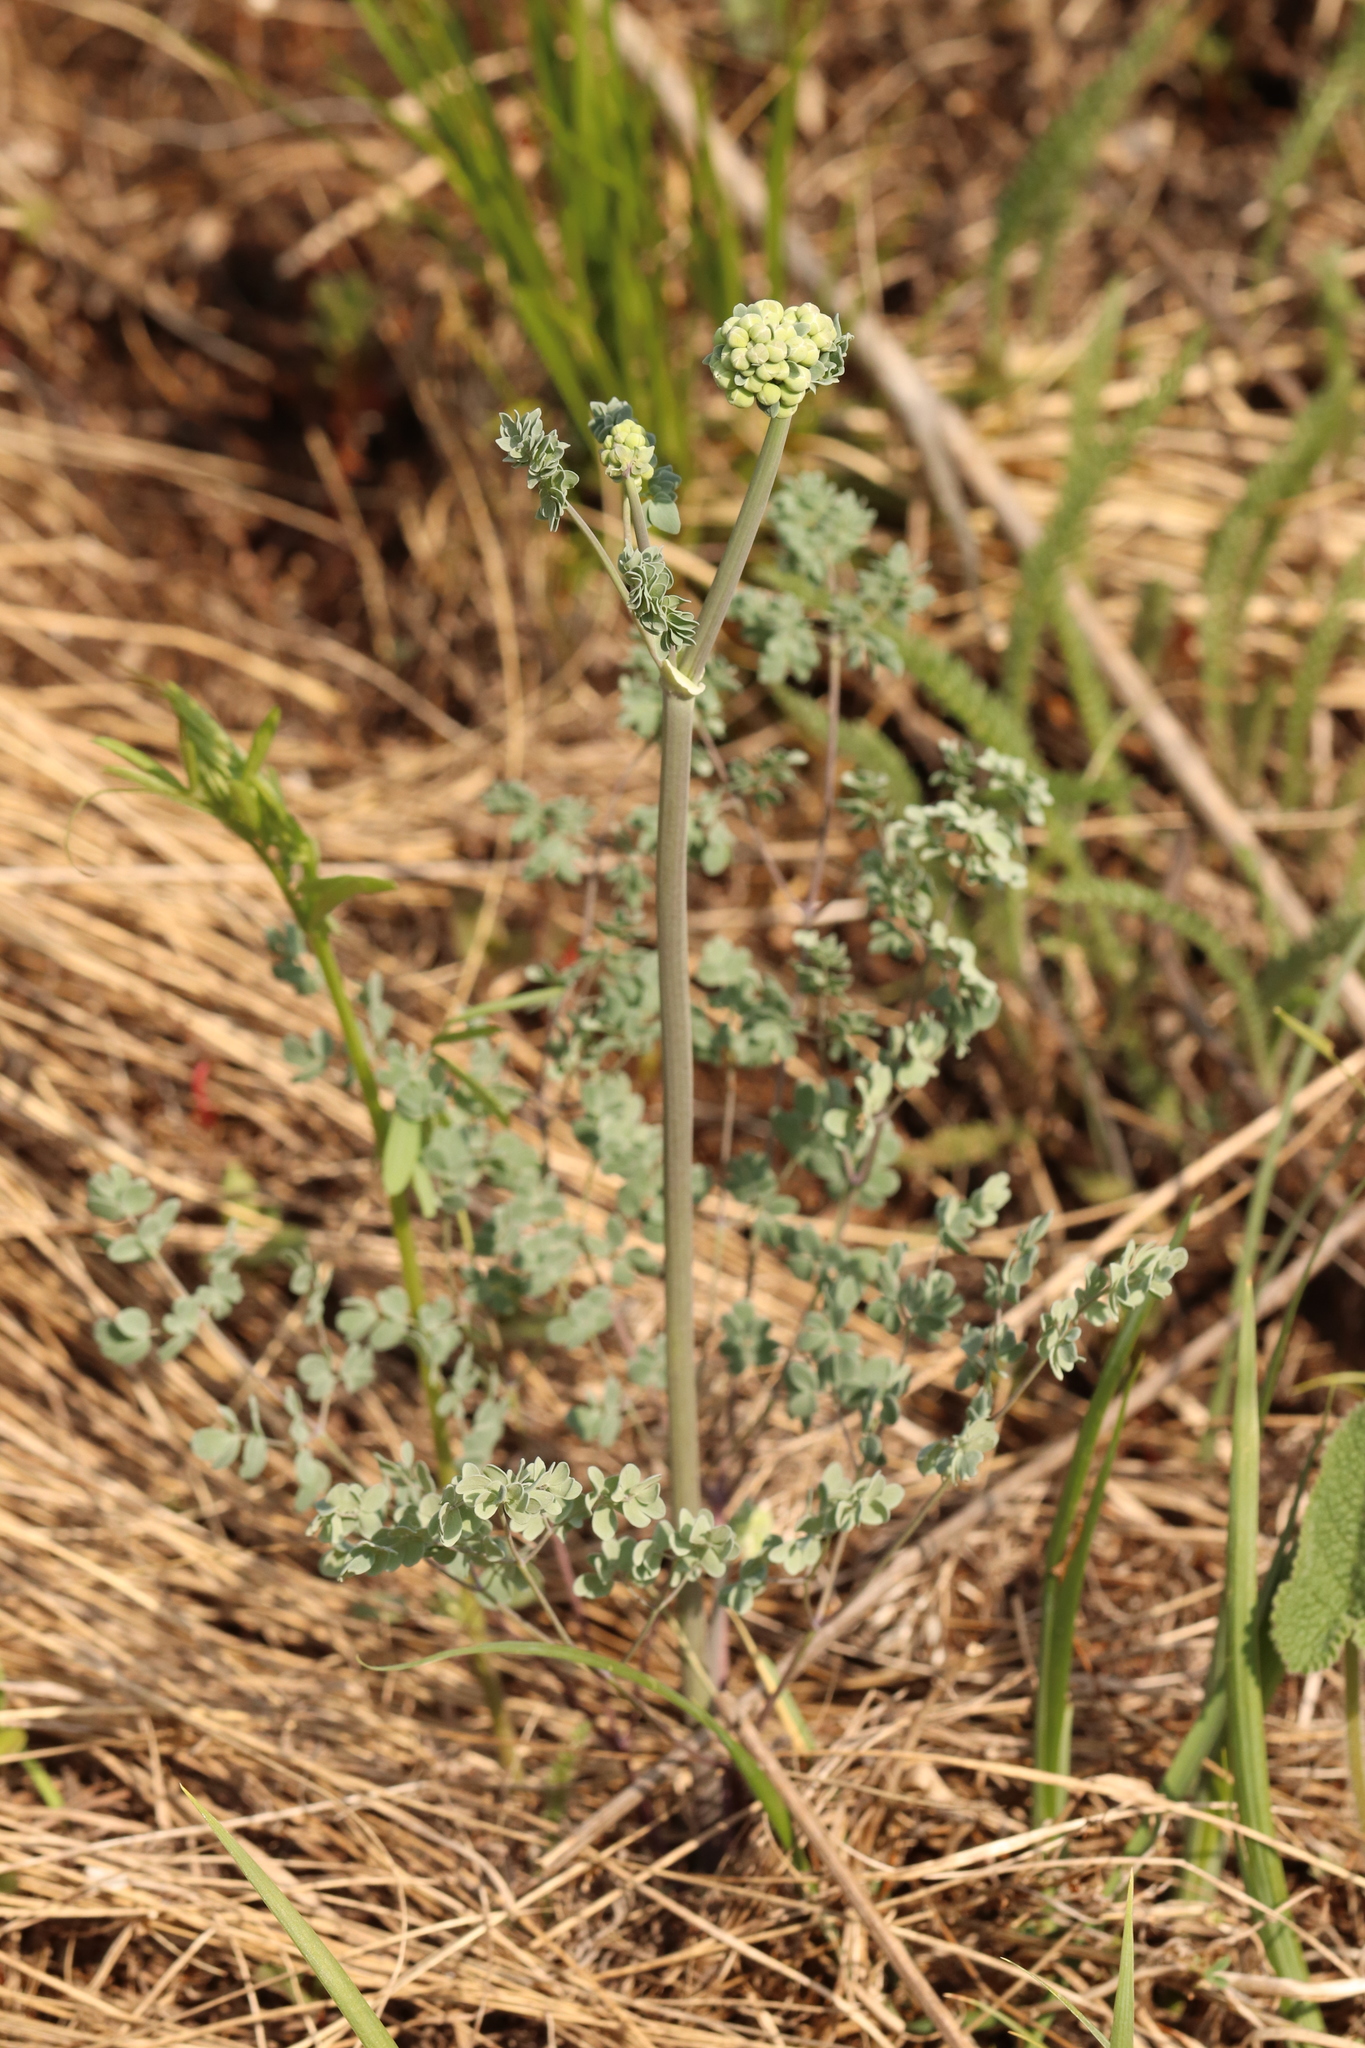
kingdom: Plantae
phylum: Tracheophyta
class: Magnoliopsida
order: Ranunculales
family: Ranunculaceae
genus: Thalictrum
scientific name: Thalictrum petaloideum
